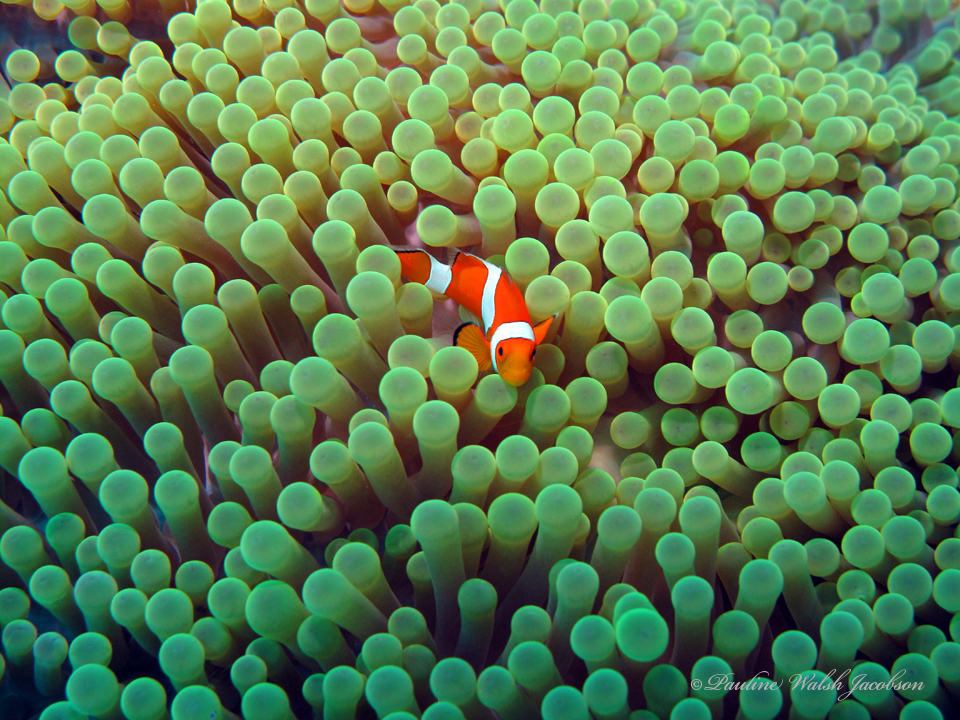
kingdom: Animalia
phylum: Chordata
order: Perciformes
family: Pomacentridae
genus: Amphiprion
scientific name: Amphiprion ocellaris
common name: Clown anemonefish
